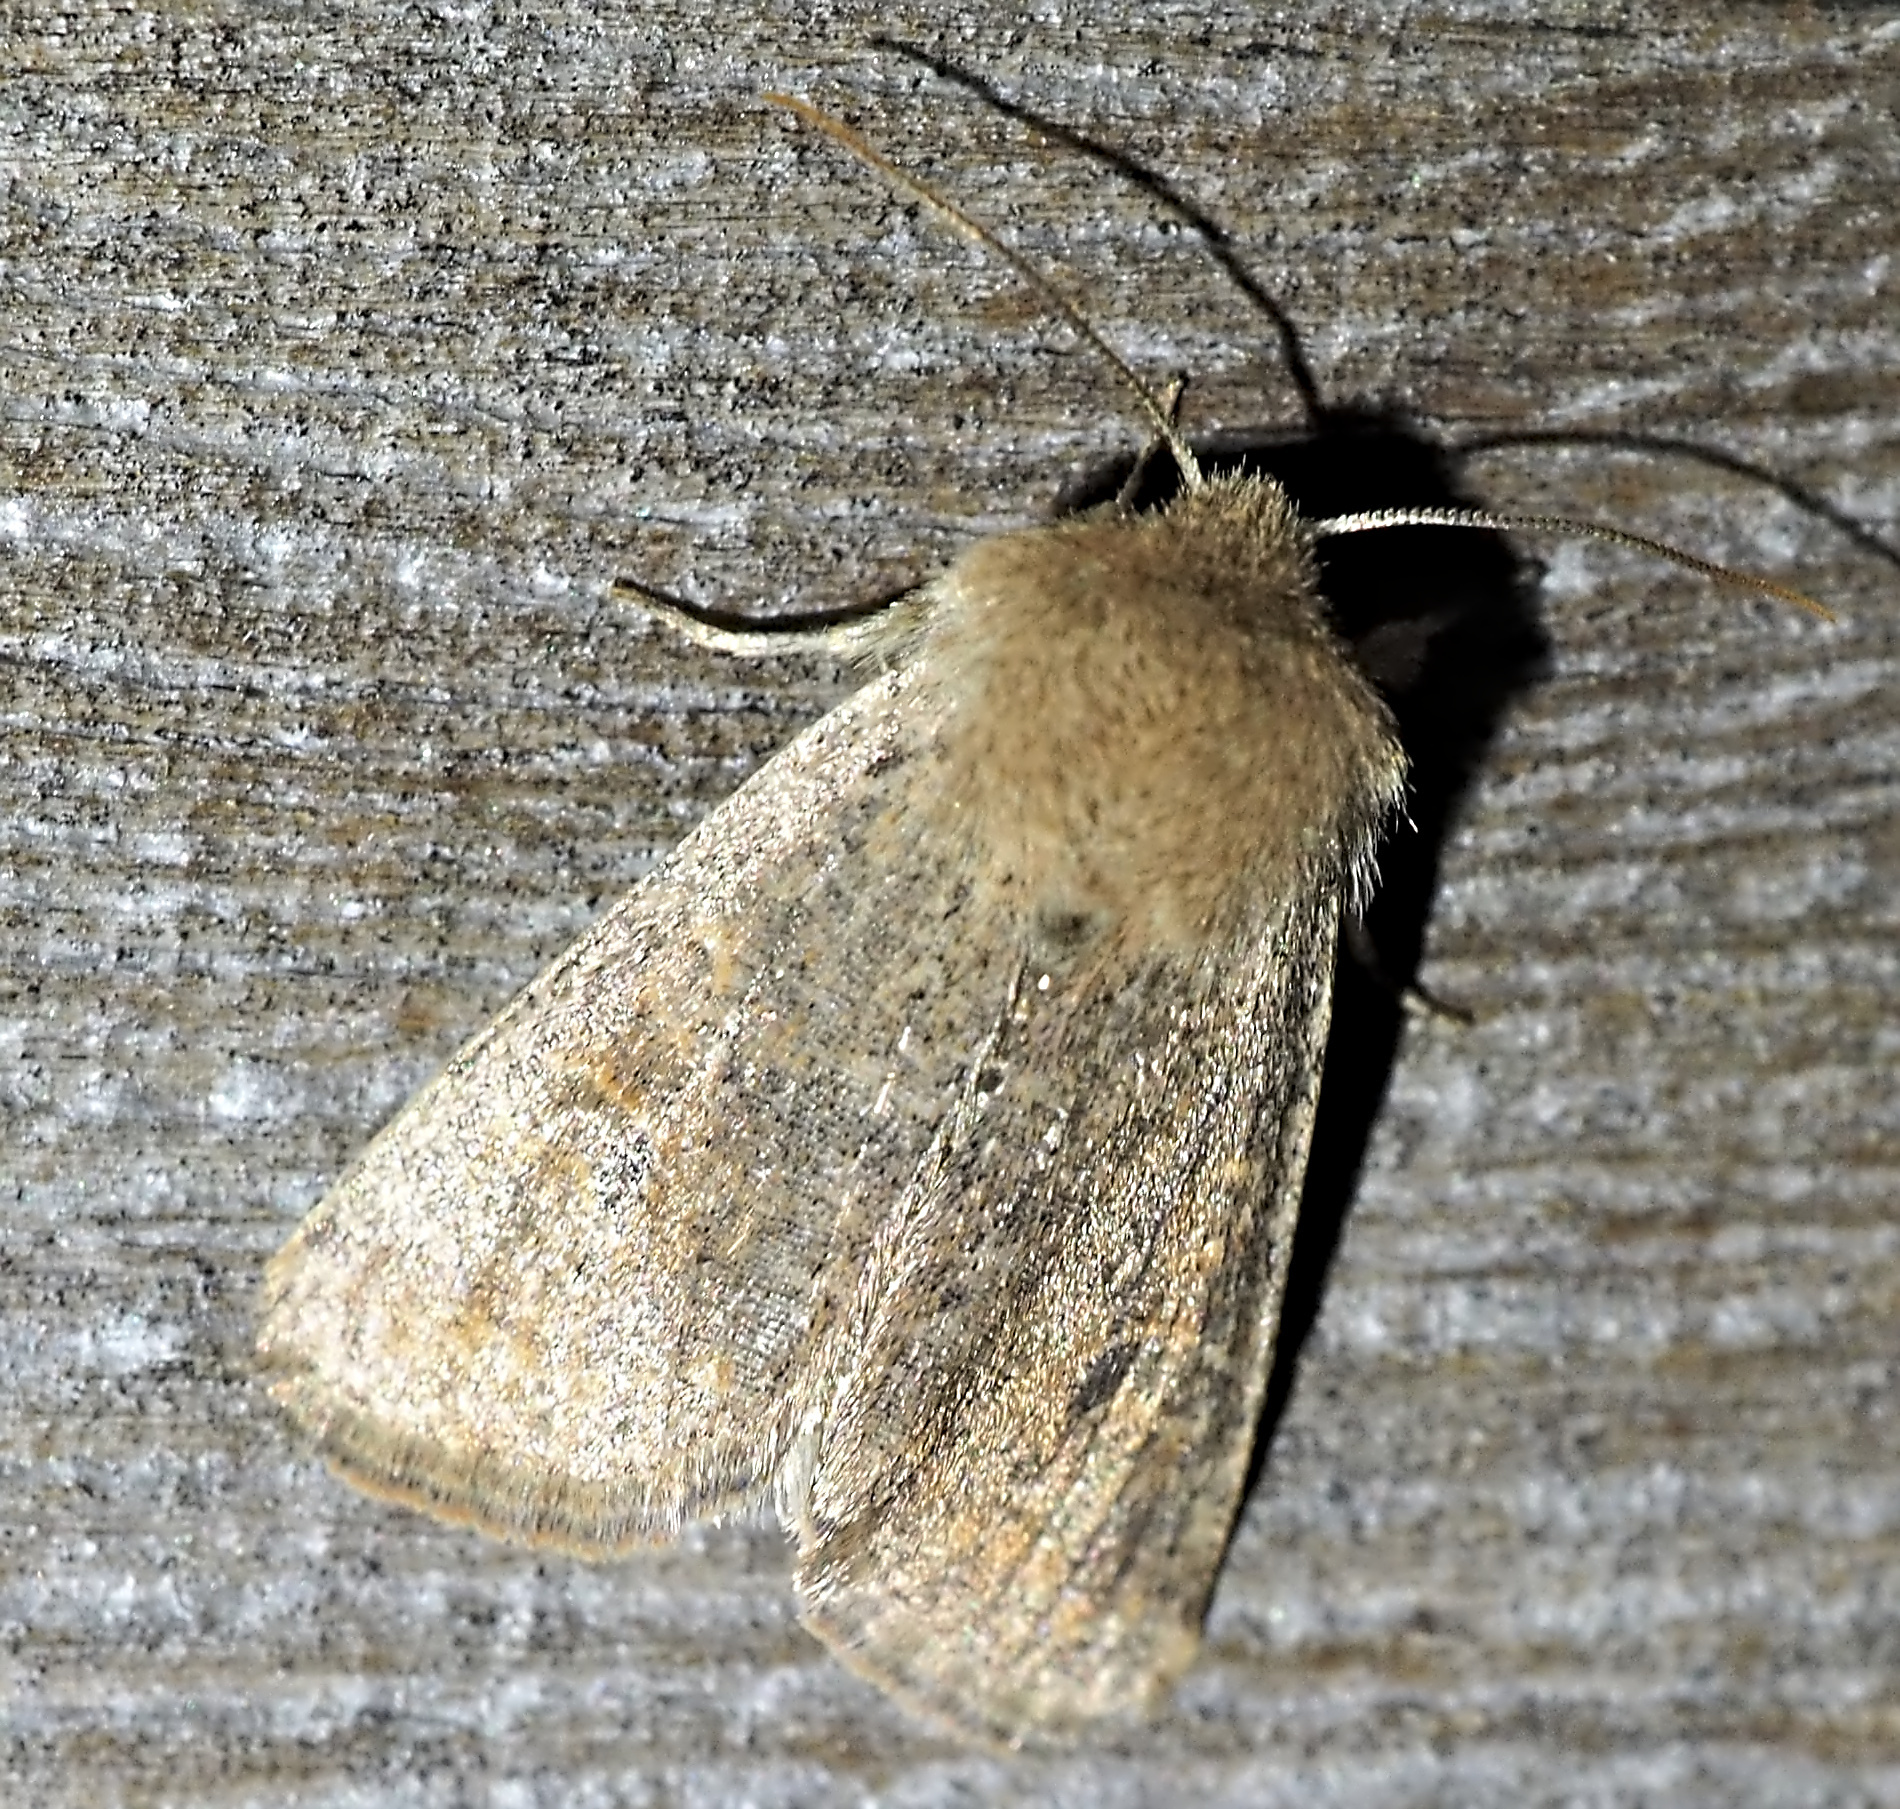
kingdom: Animalia
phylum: Arthropoda
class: Insecta
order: Lepidoptera
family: Noctuidae
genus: Orthosia
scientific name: Orthosia cruda
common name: Small quaker
